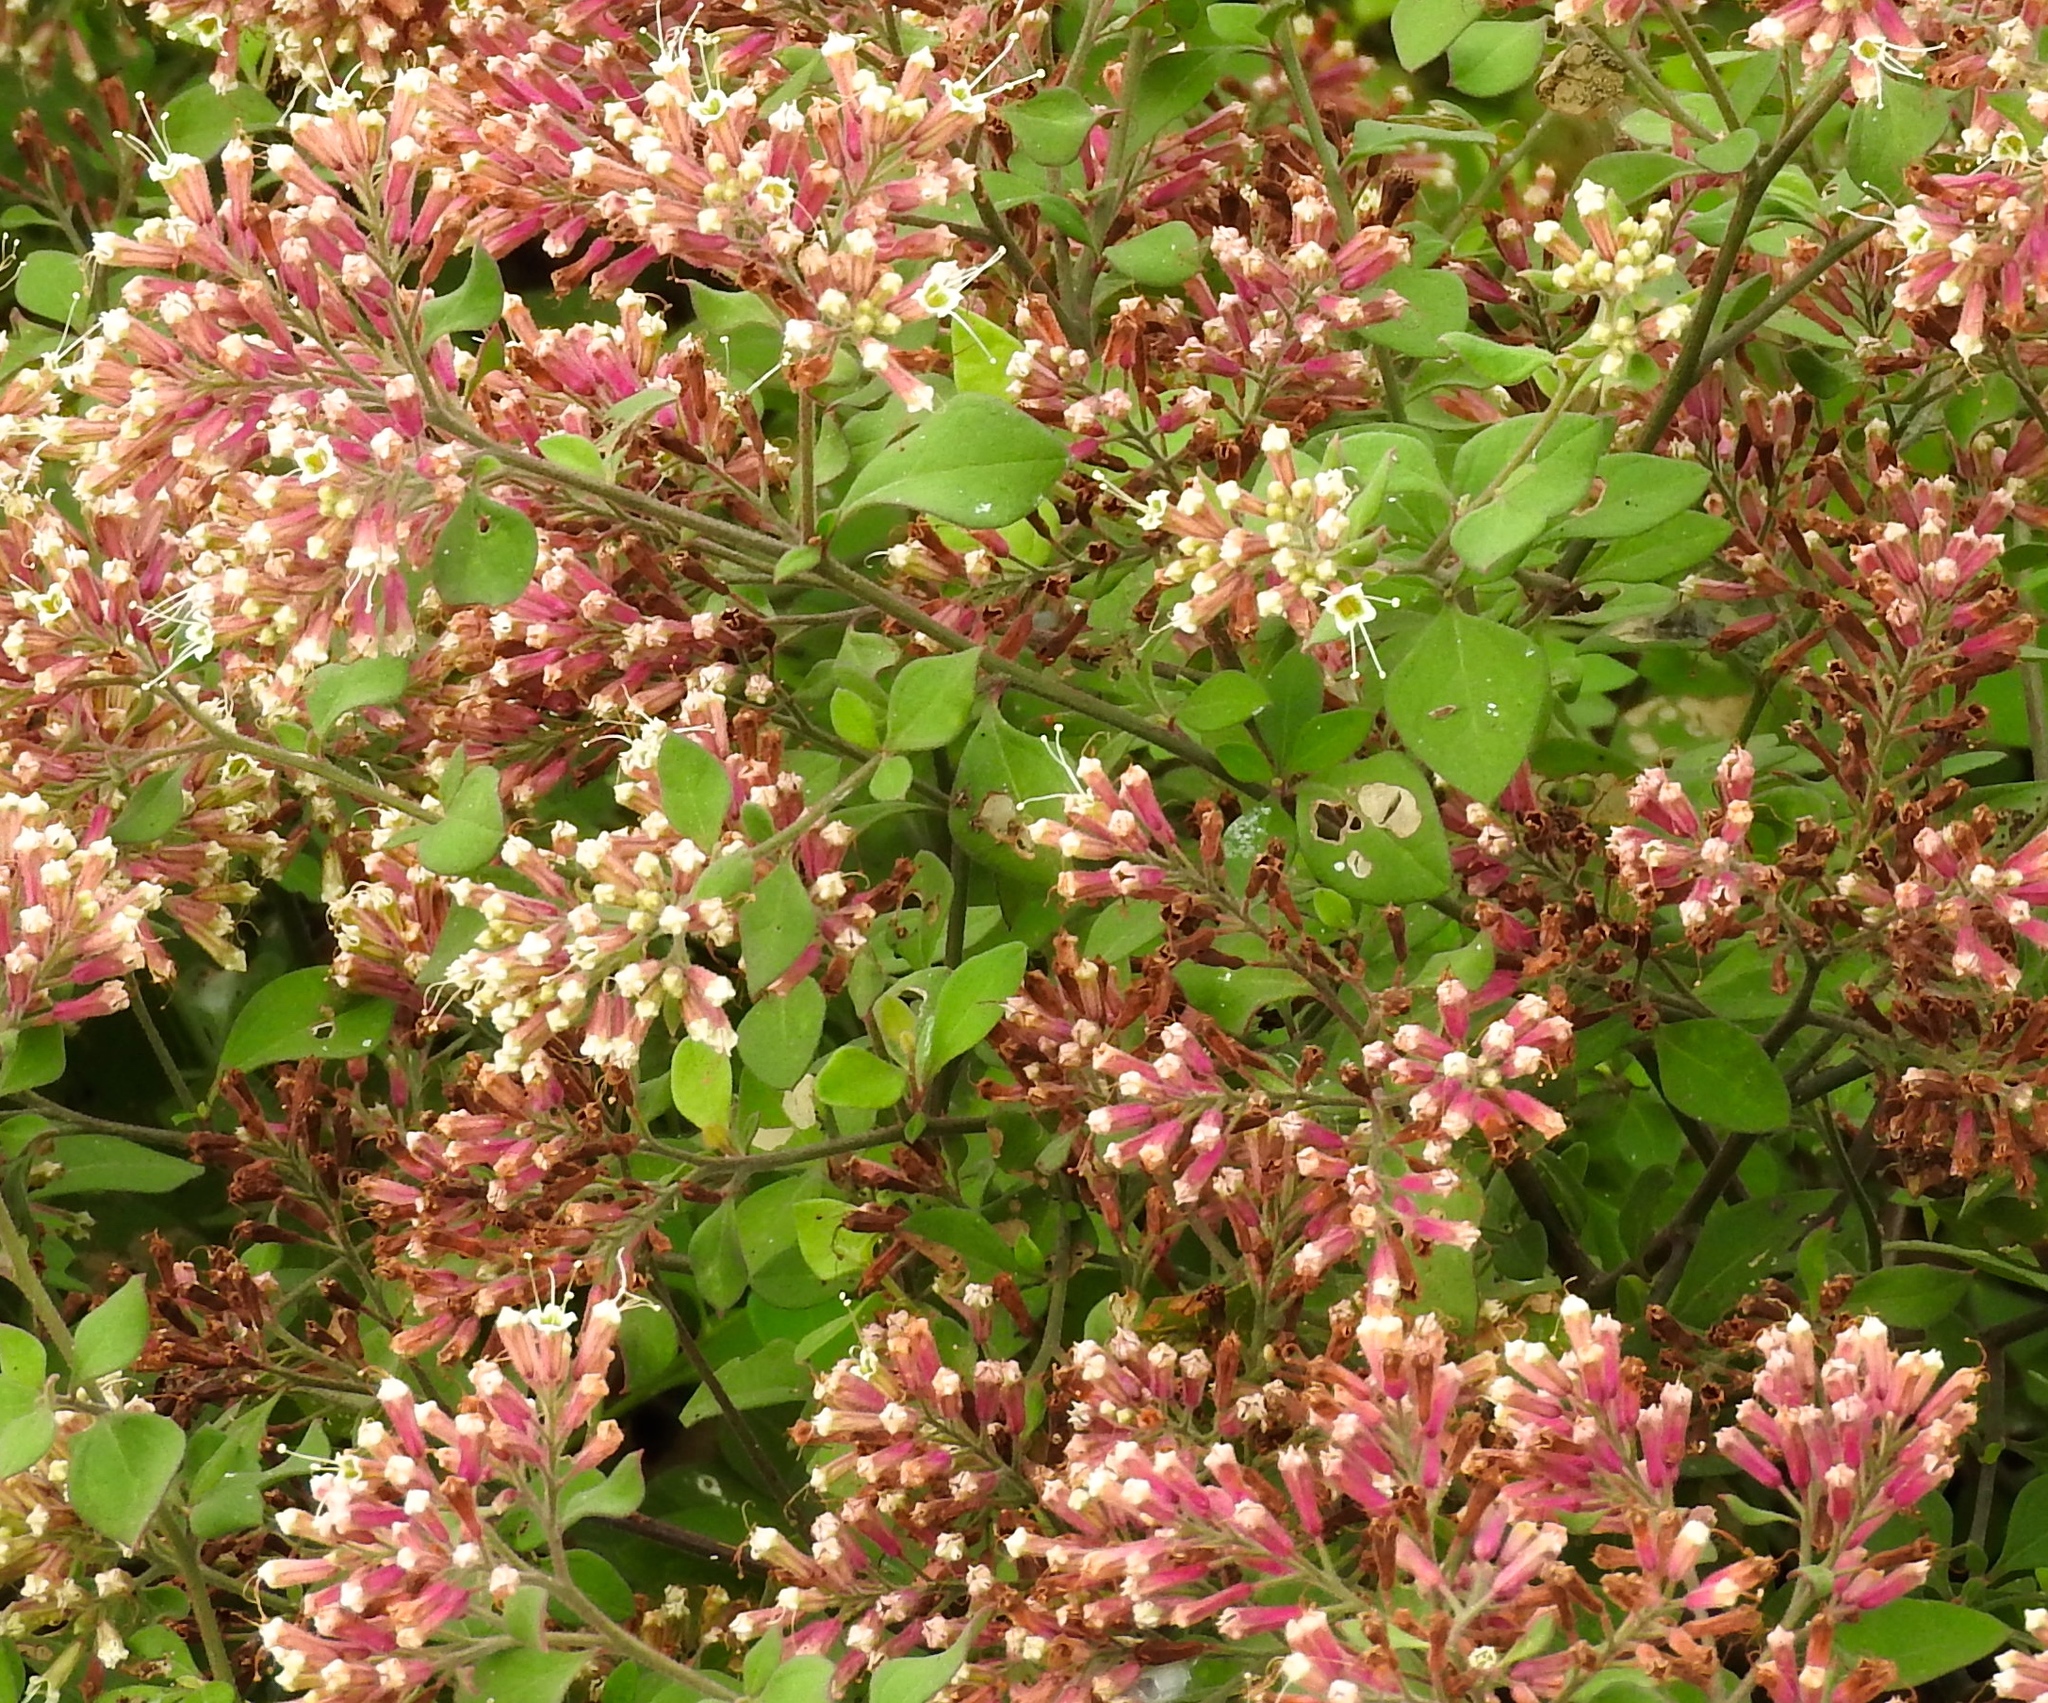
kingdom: Plantae
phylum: Tracheophyta
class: Magnoliopsida
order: Caryophyllales
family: Nyctaginaceae
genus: Salpianthus
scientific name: Salpianthus arenarius
